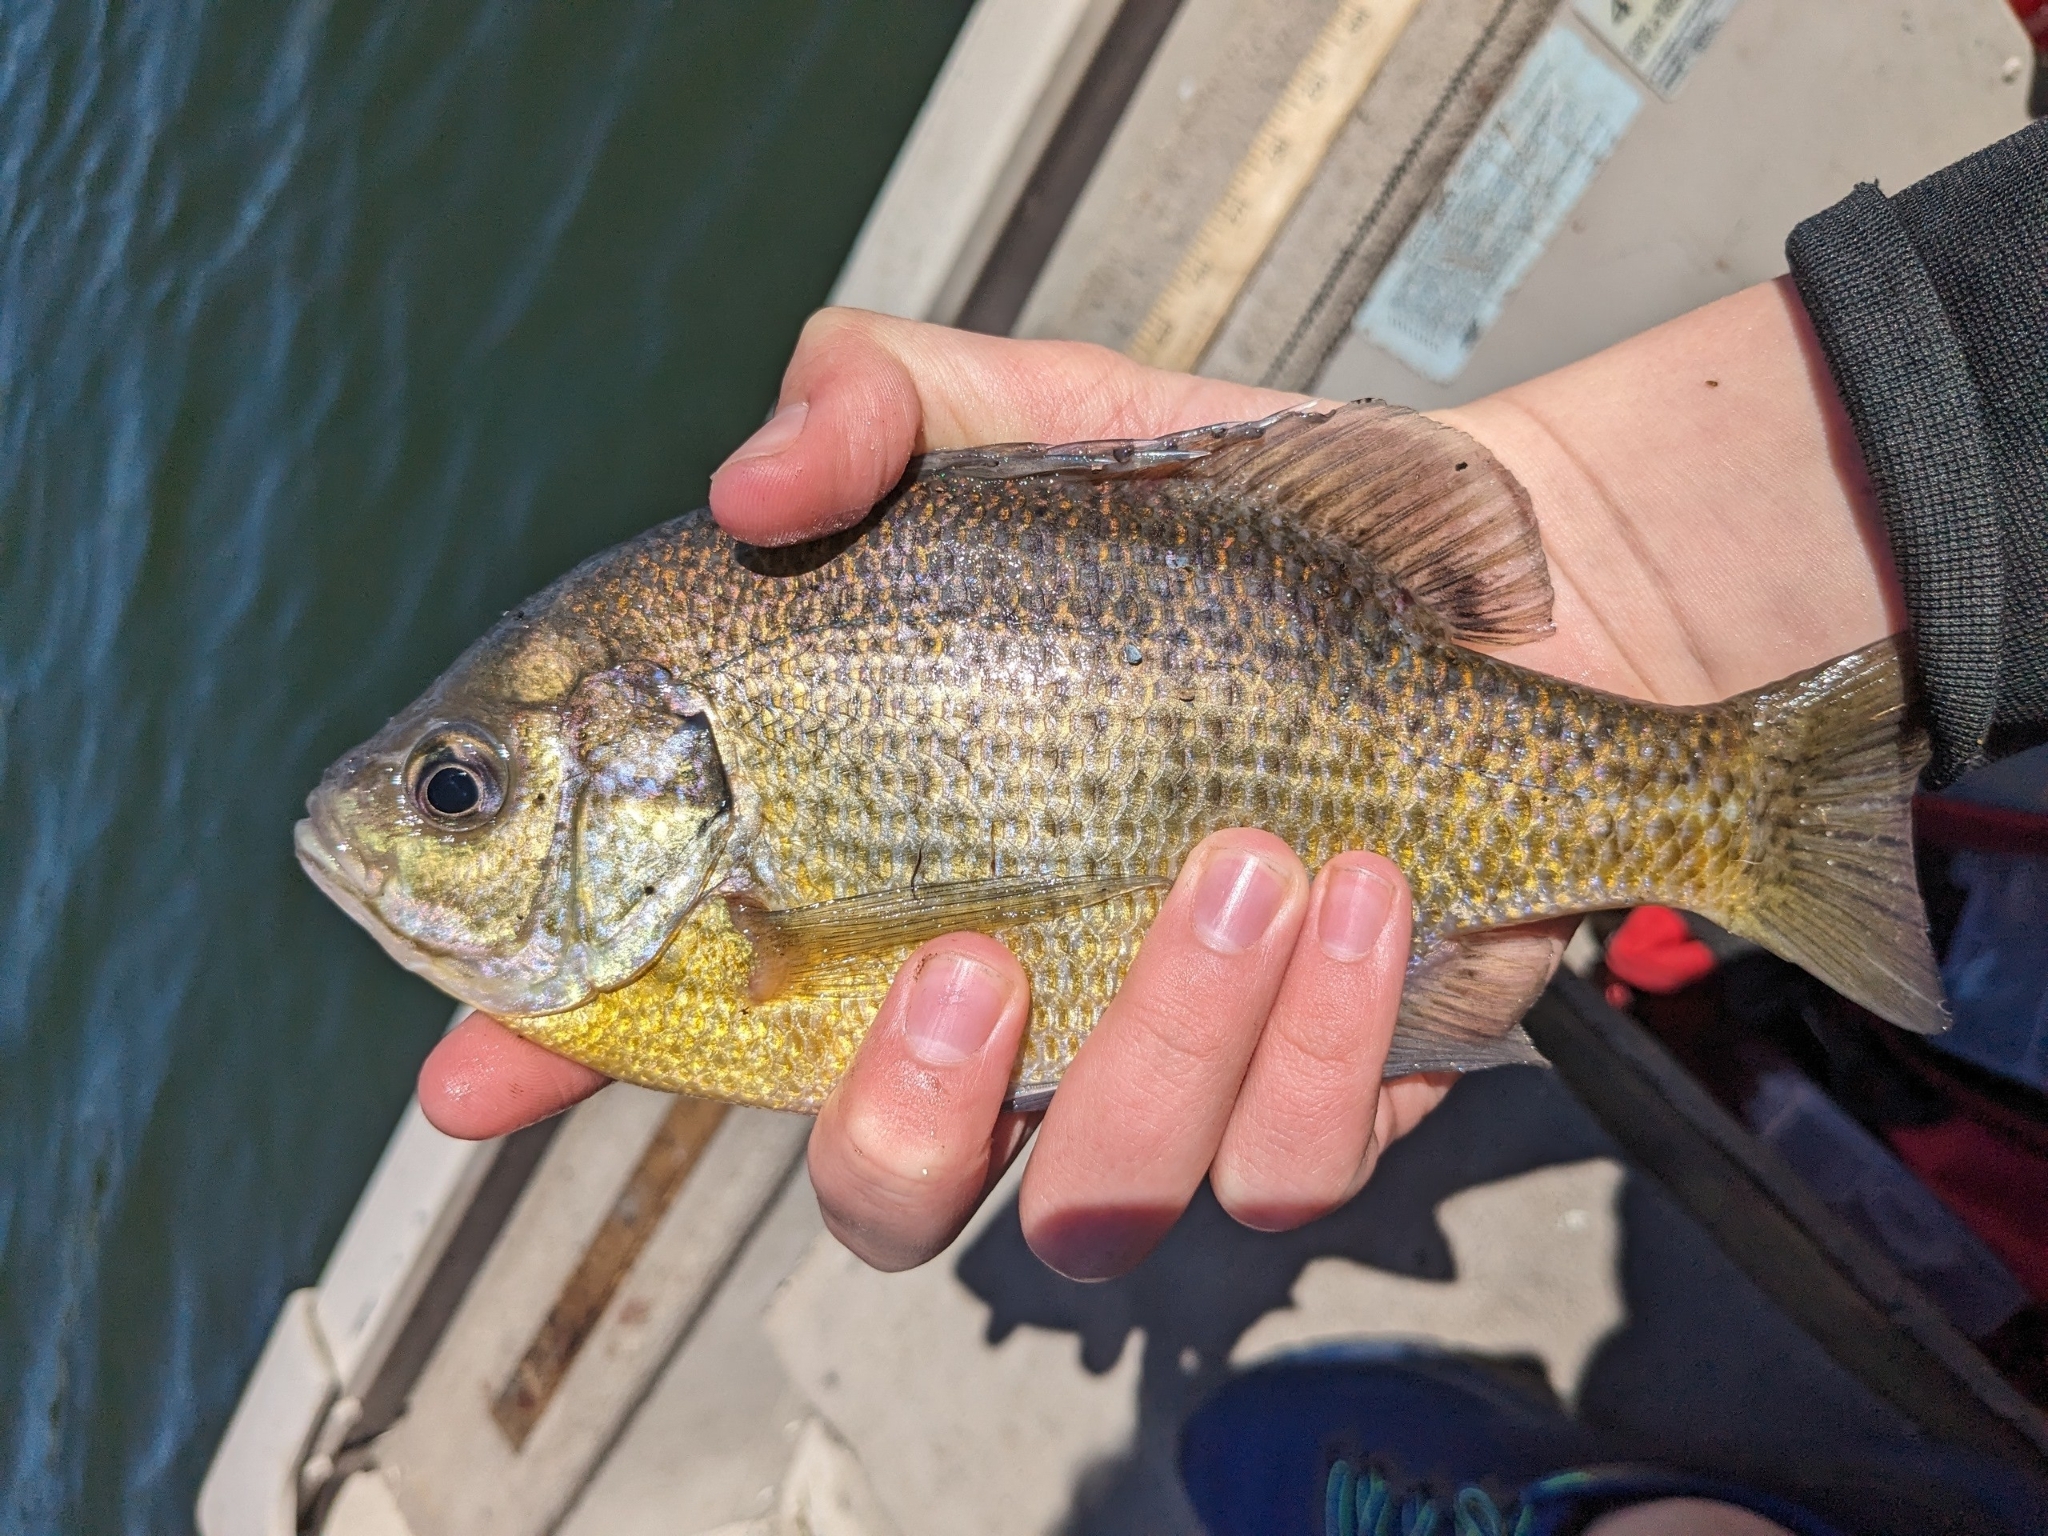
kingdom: Animalia
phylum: Chordata
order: Perciformes
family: Centrarchidae
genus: Lepomis
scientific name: Lepomis macrochirus
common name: Bluegill
